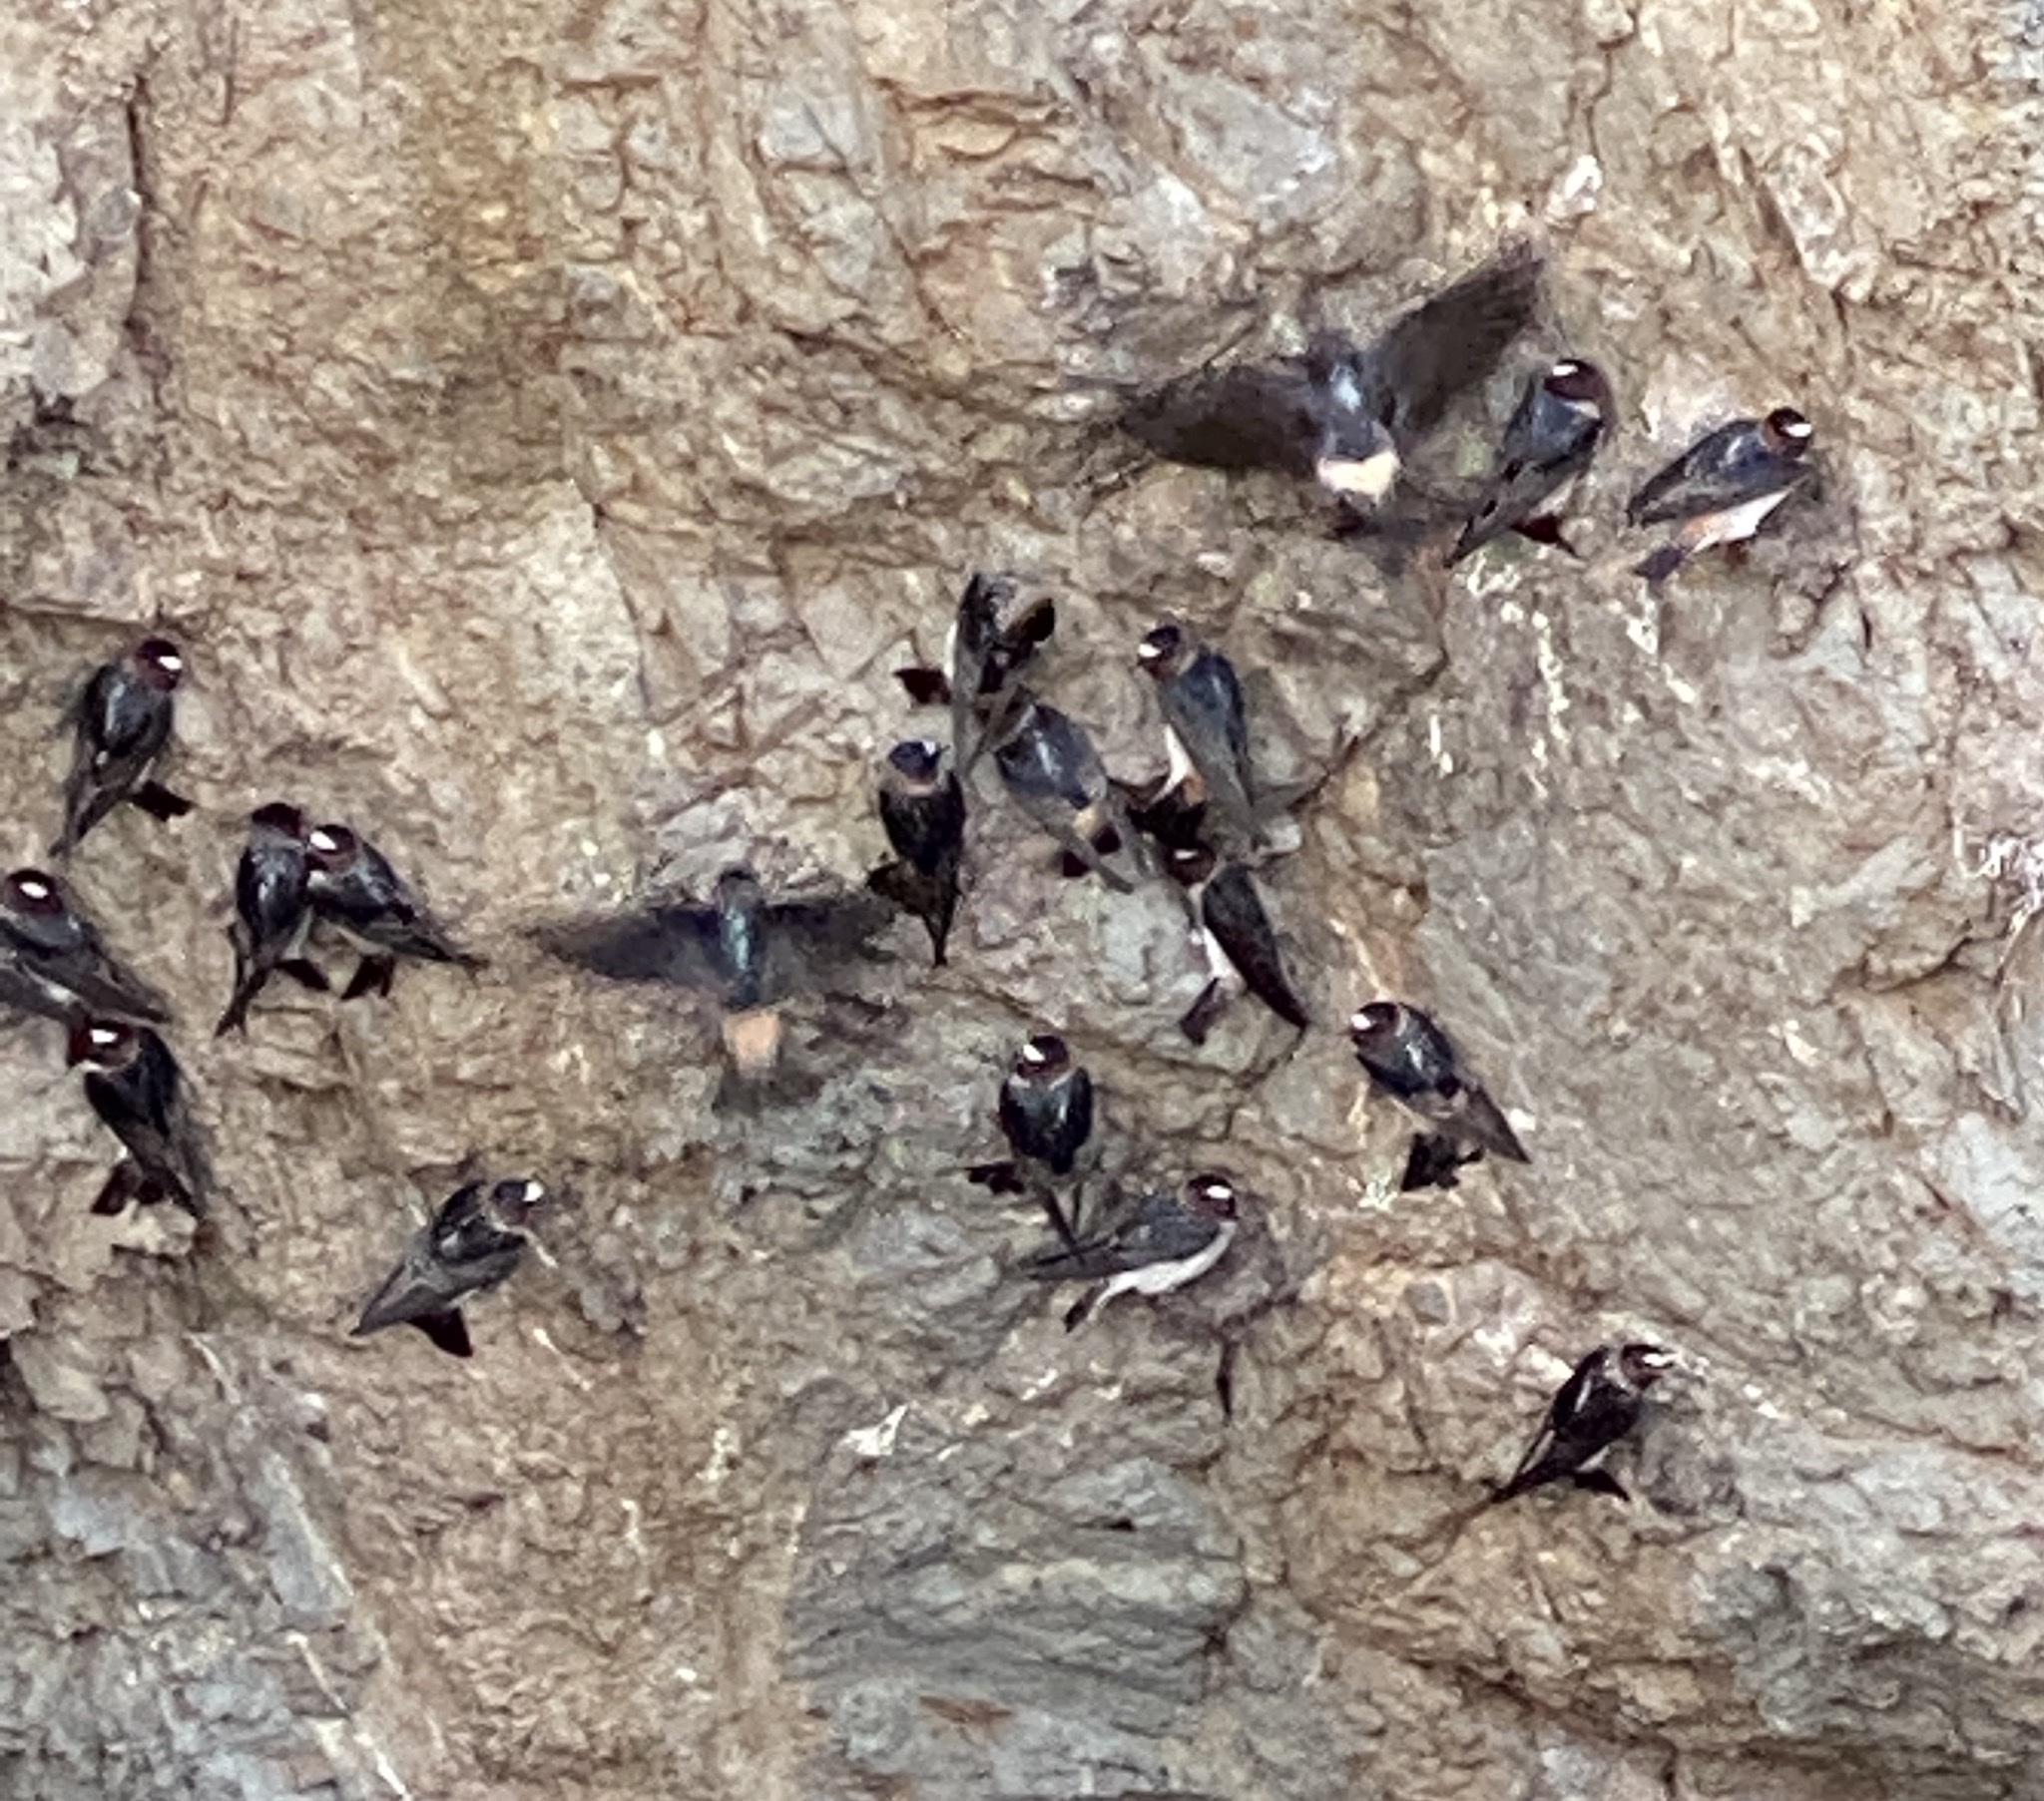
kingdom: Animalia
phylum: Chordata
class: Aves
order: Passeriformes
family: Hirundinidae
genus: Petrochelidon
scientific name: Petrochelidon pyrrhonota
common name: American cliff swallow
